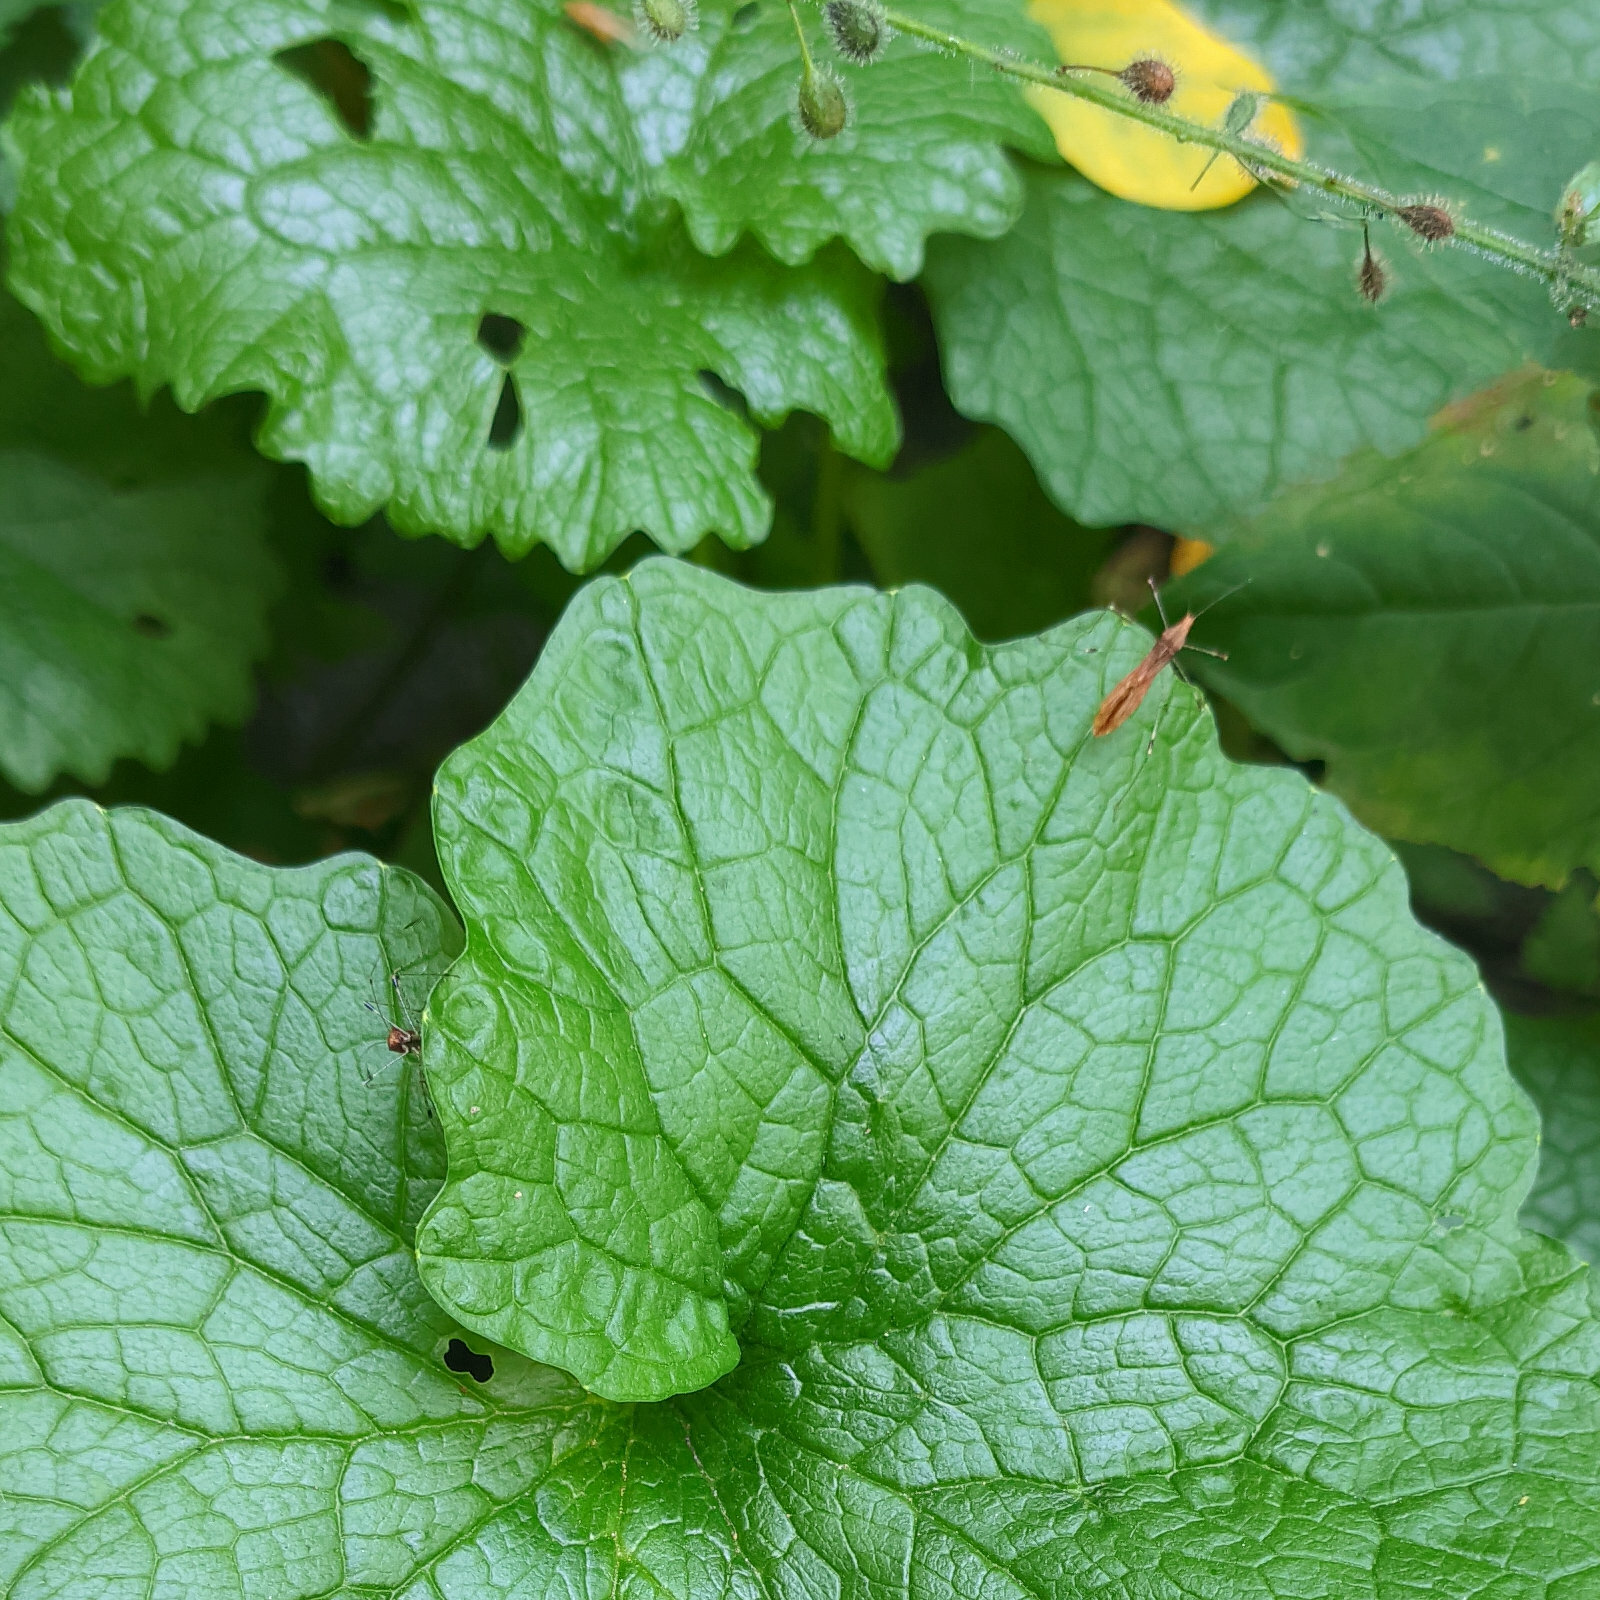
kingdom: Animalia
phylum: Arthropoda
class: Insecta
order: Hemiptera
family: Berytidae
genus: Metatropis
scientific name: Metatropis rufescens
